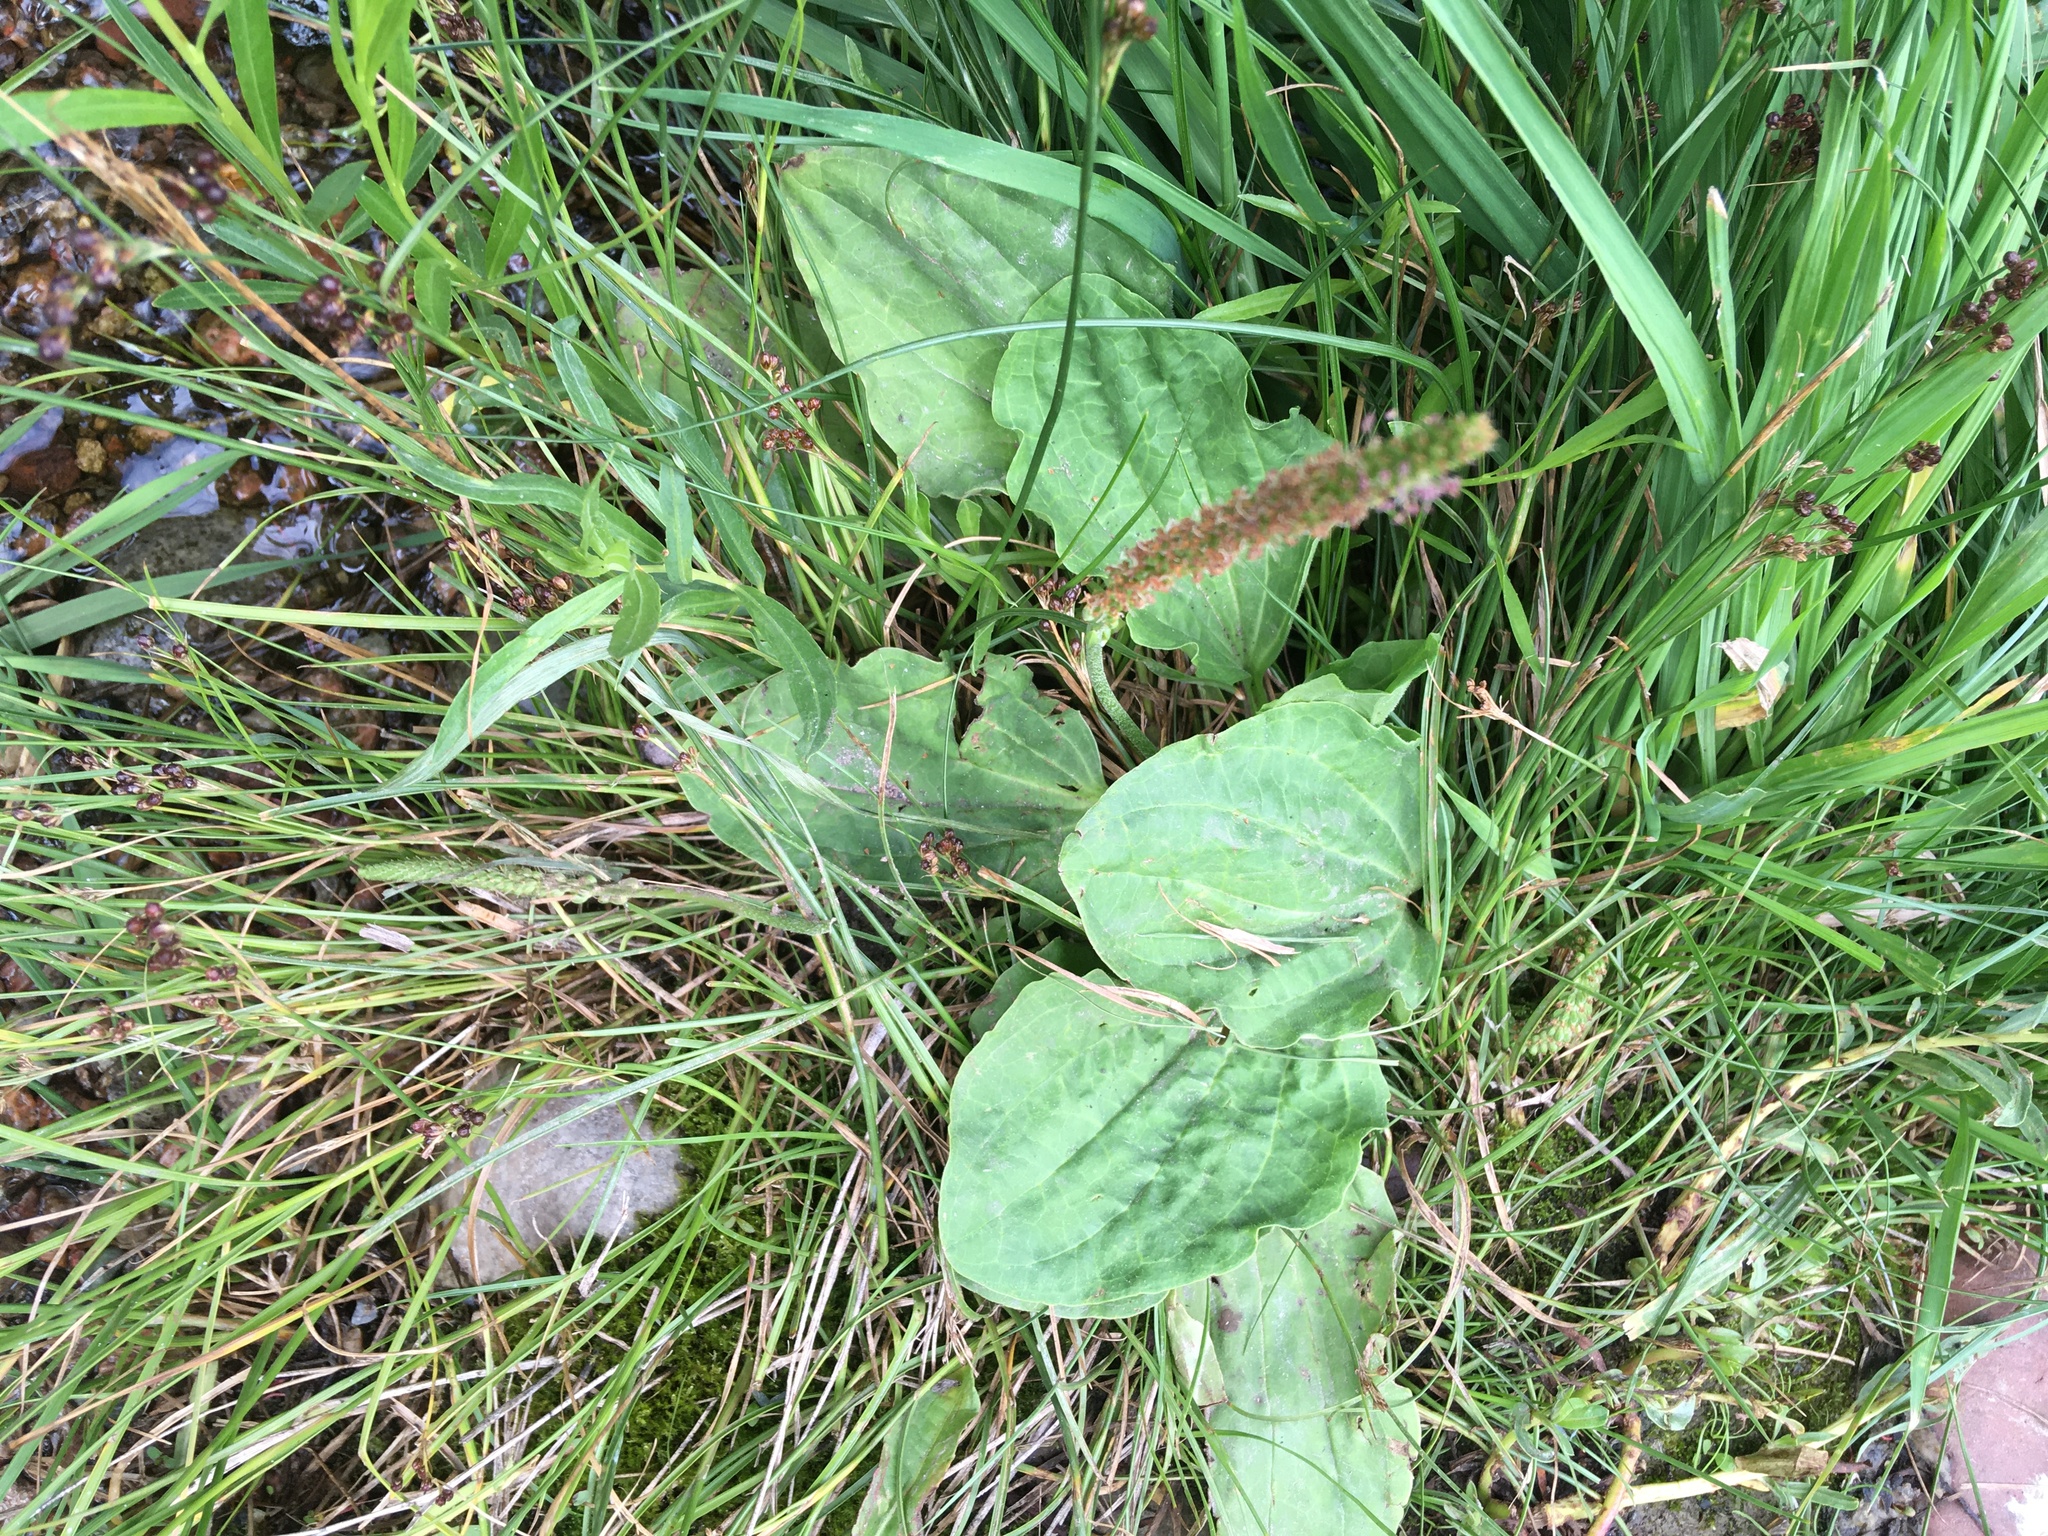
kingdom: Plantae
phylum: Tracheophyta
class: Magnoliopsida
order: Lamiales
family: Plantaginaceae
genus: Plantago
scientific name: Plantago major
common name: Common plantain
